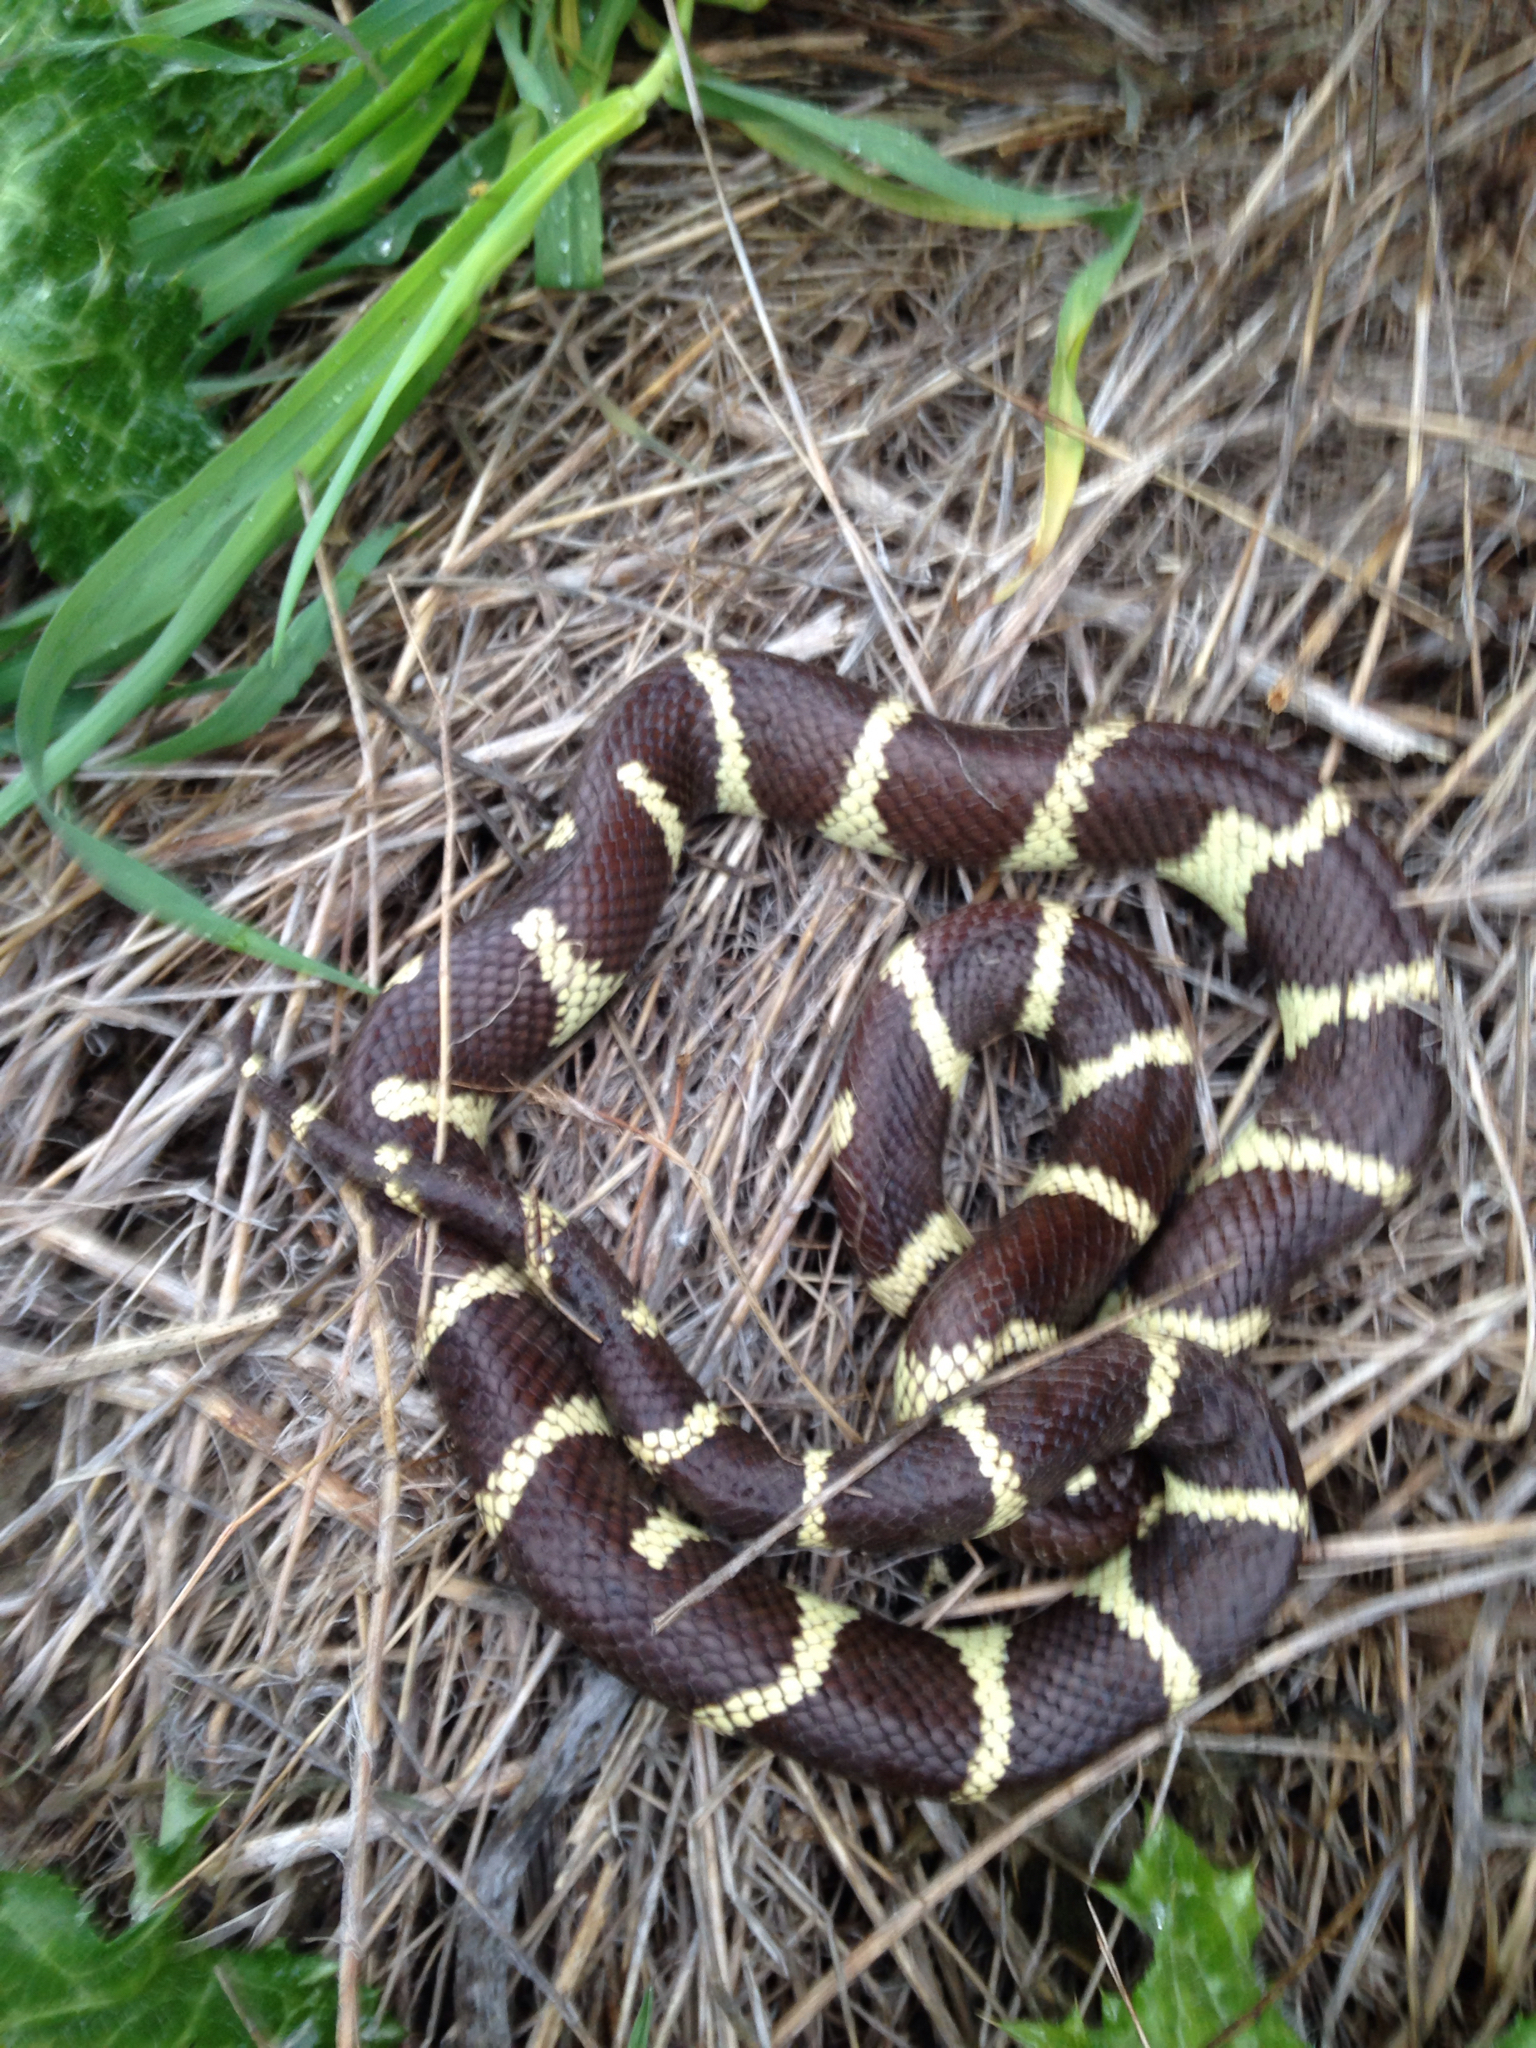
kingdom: Animalia
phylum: Chordata
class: Squamata
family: Colubridae
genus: Lampropeltis
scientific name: Lampropeltis californiae
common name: California kingsnake
